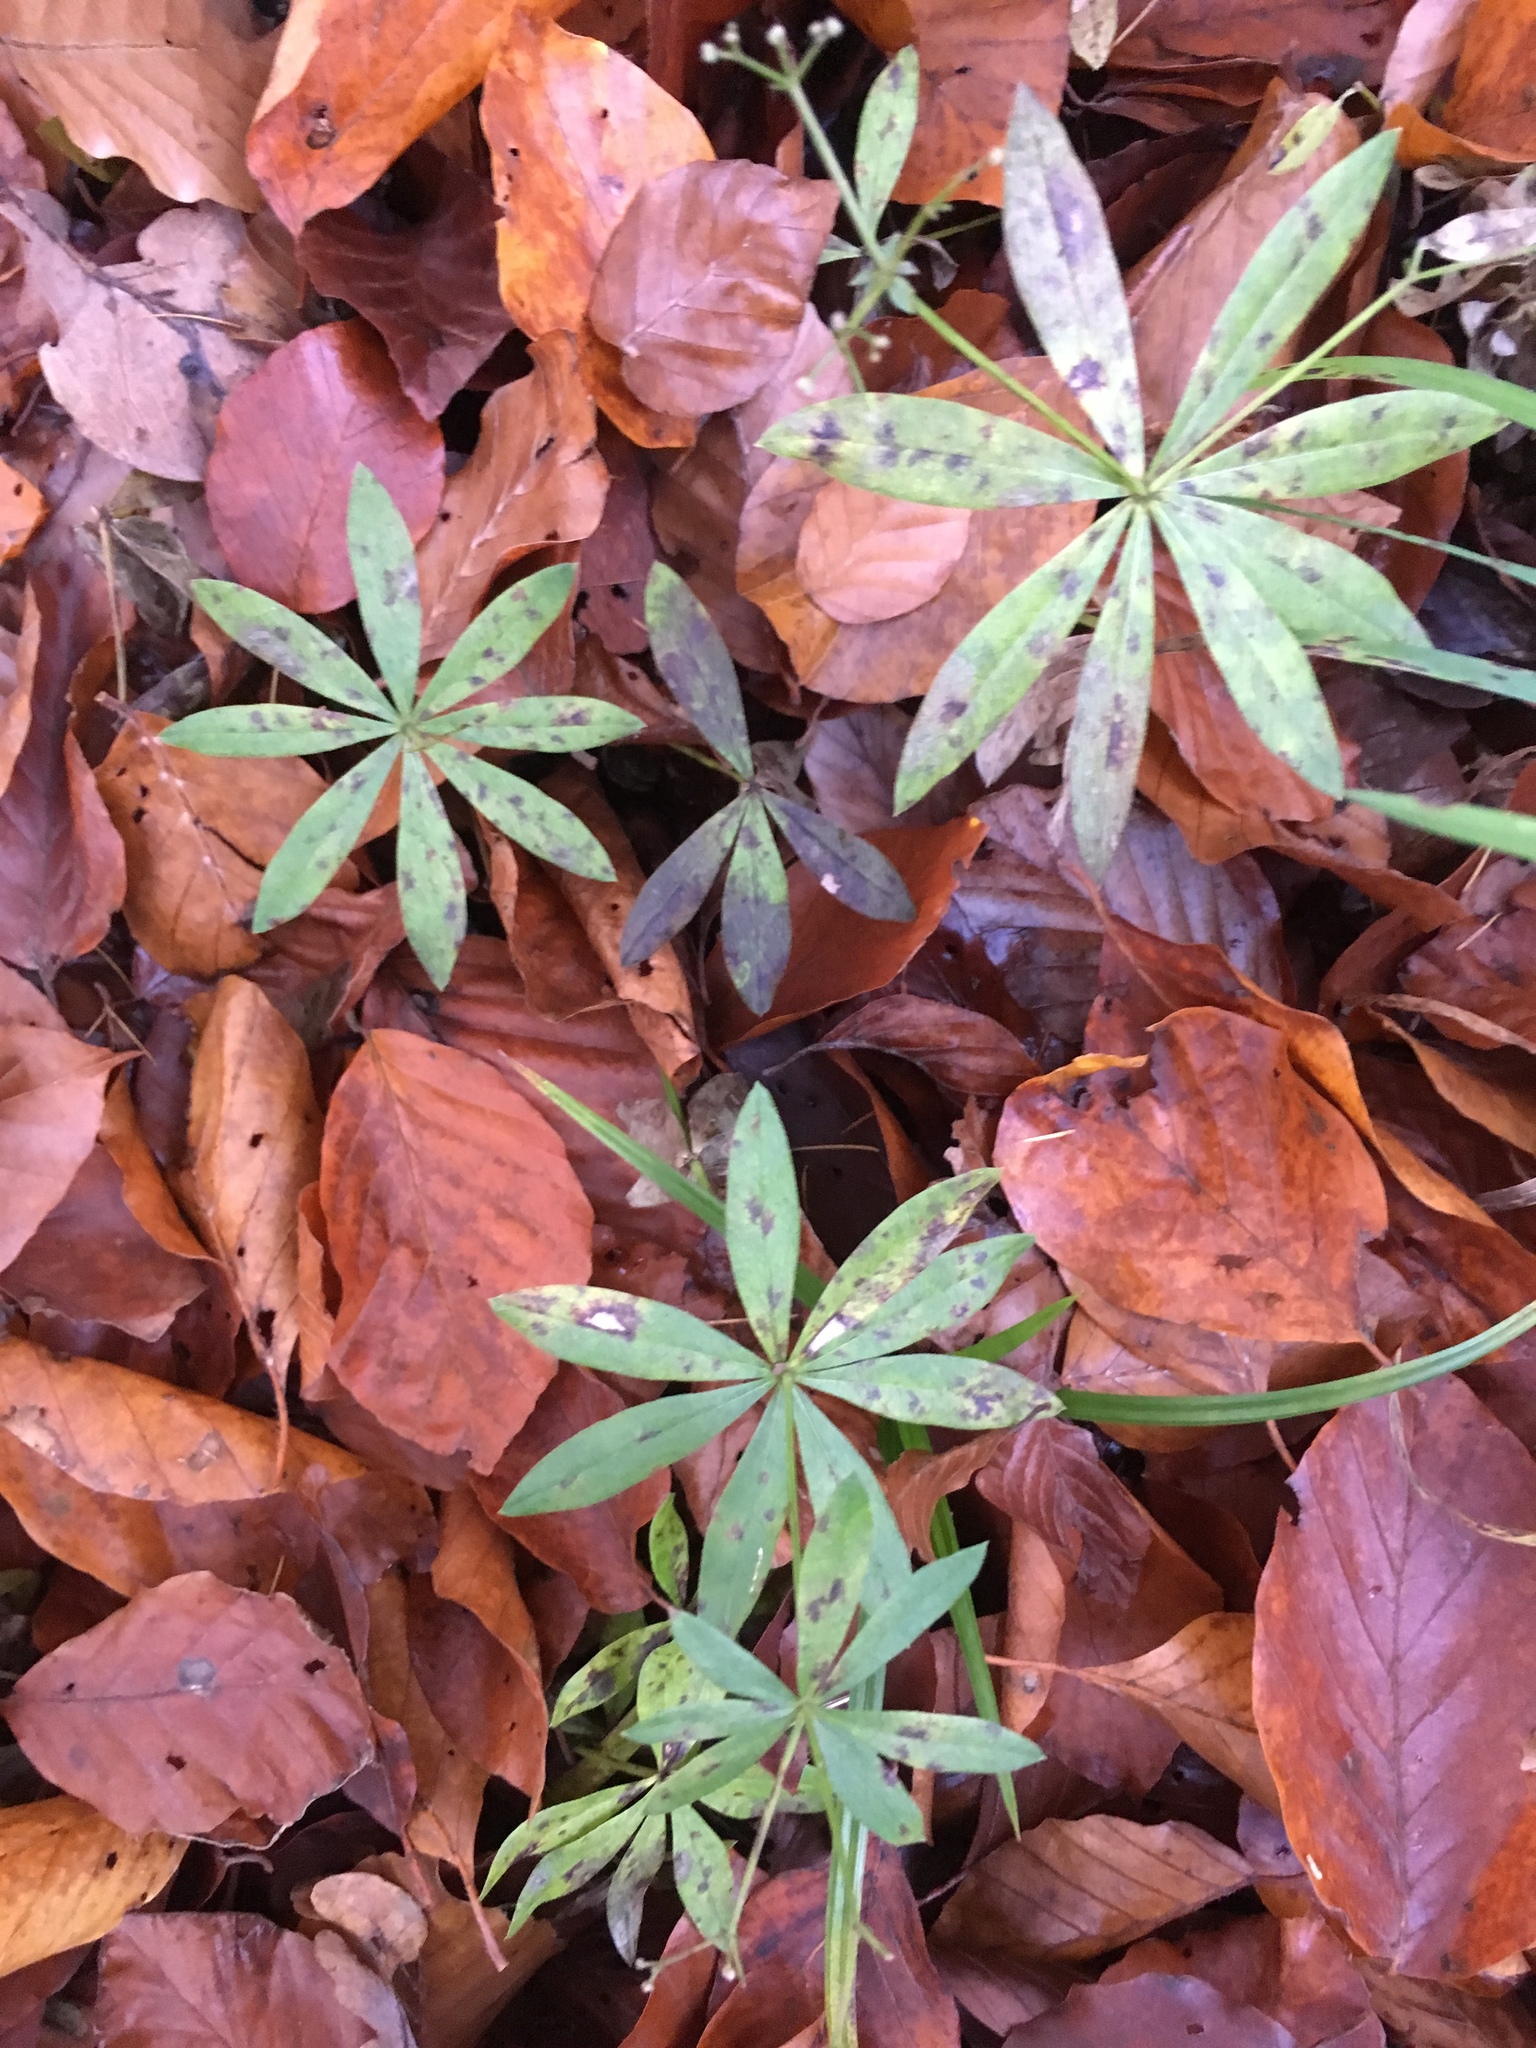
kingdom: Plantae
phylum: Tracheophyta
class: Magnoliopsida
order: Gentianales
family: Rubiaceae
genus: Galium
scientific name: Galium odoratum
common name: Sweet woodruff
